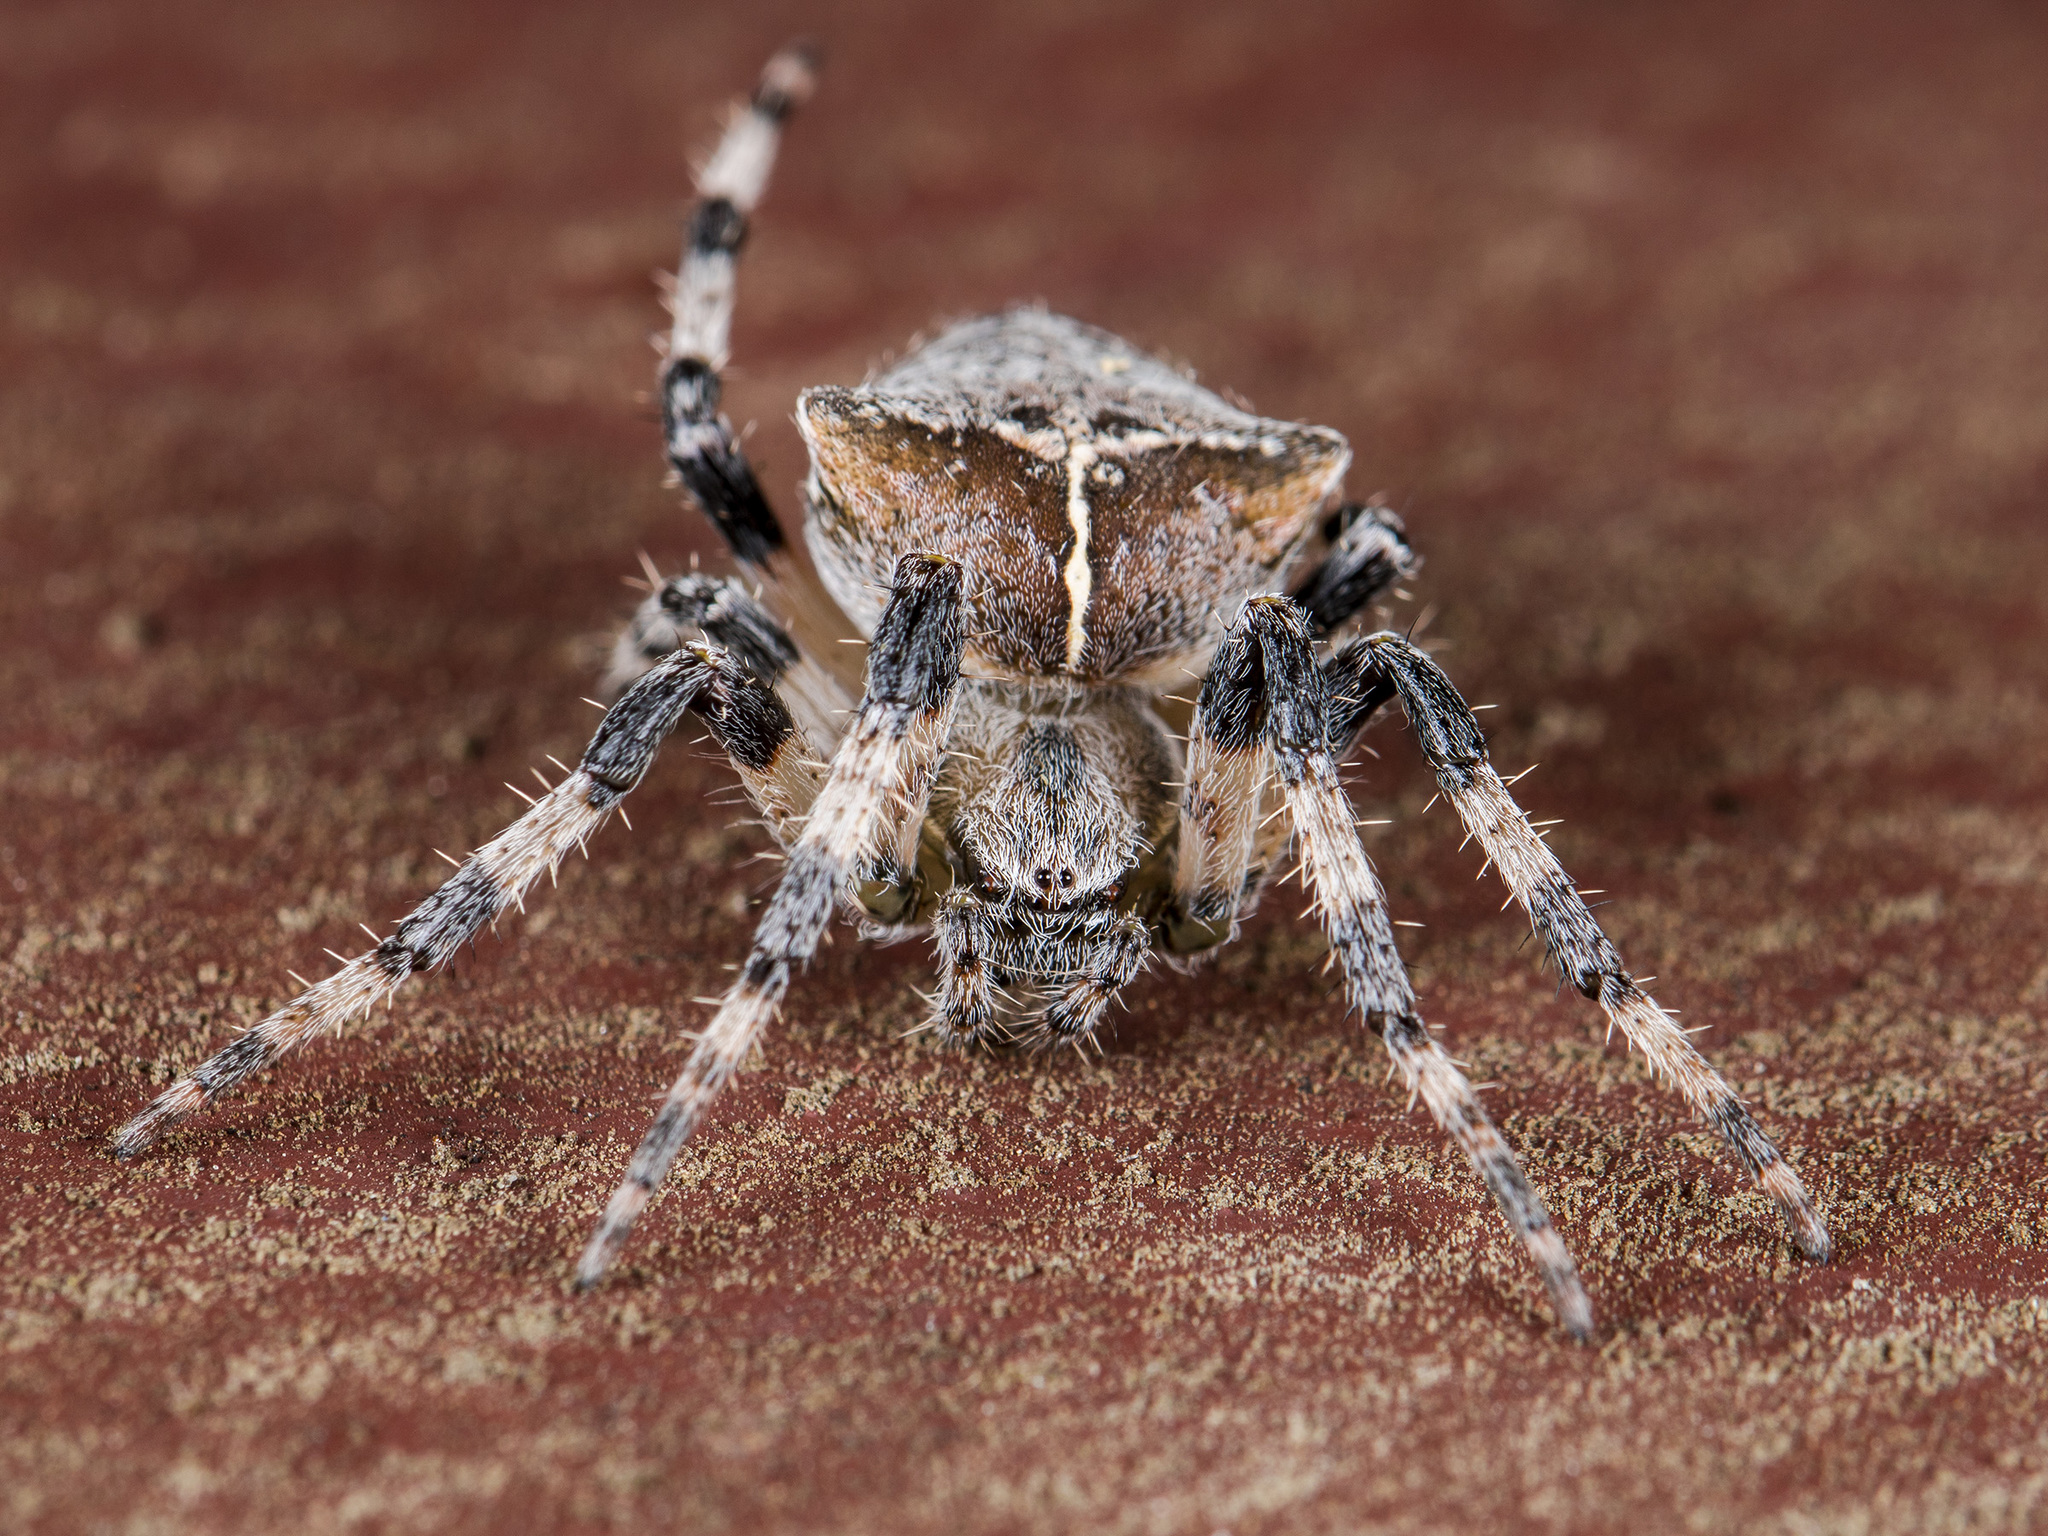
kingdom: Animalia
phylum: Arthropoda
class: Arachnida
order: Araneae
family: Araneidae
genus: Araneus
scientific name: Araneus tartaricus
